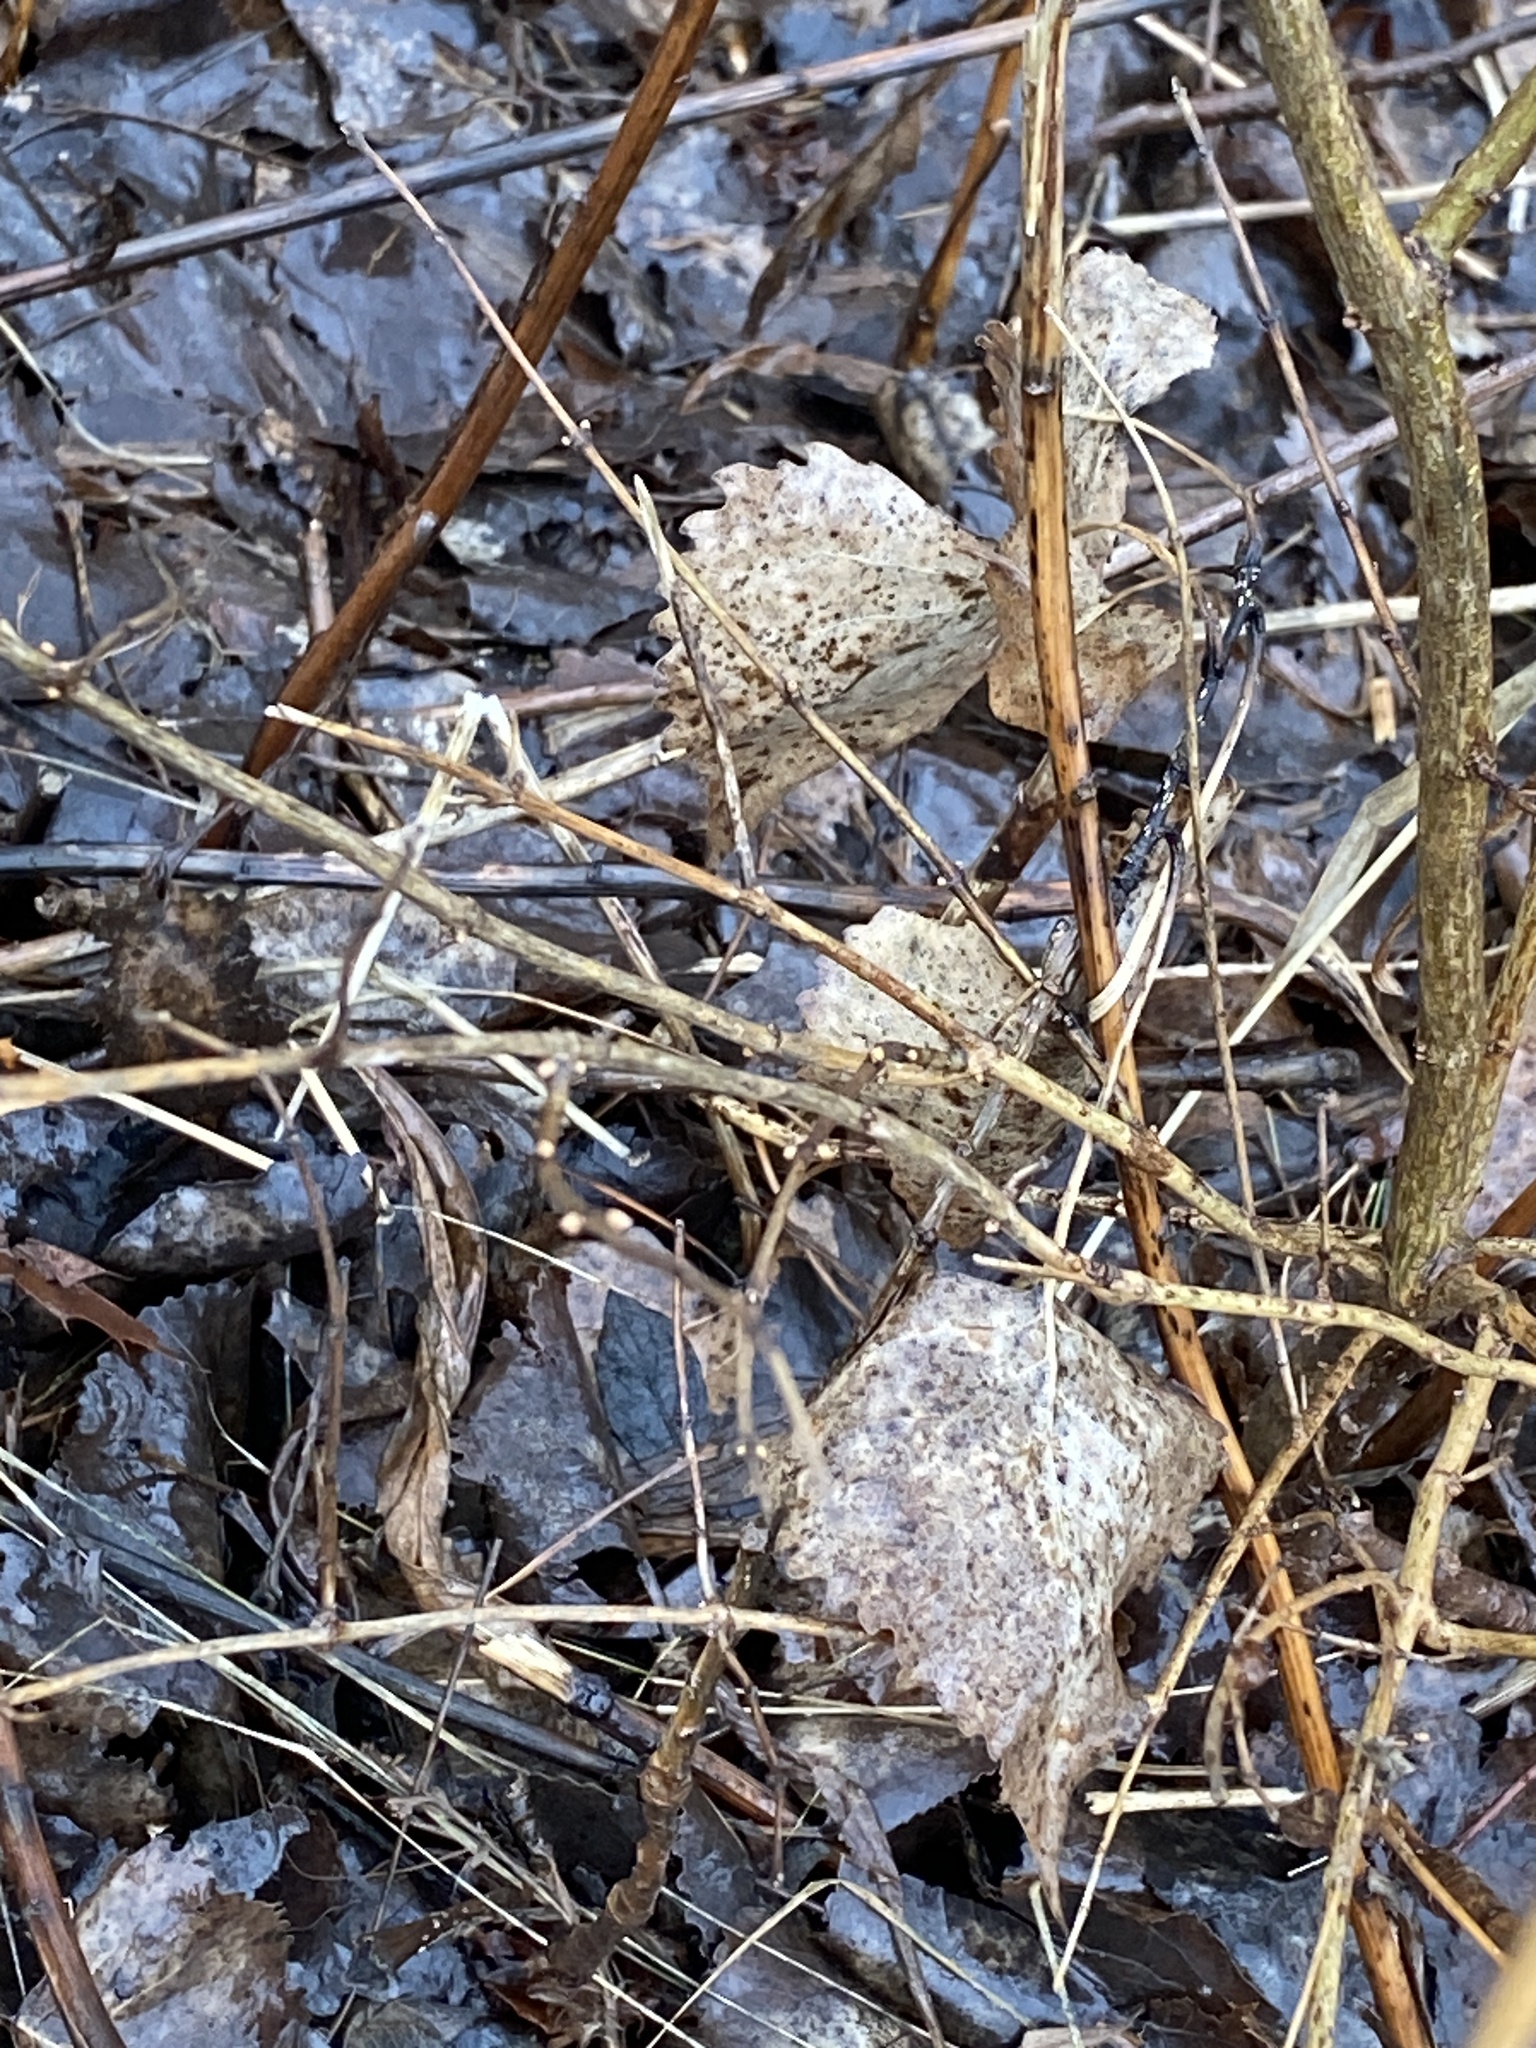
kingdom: Plantae
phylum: Tracheophyta
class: Magnoliopsida
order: Malpighiales
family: Salicaceae
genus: Populus
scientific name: Populus deltoides
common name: Eastern cottonwood
